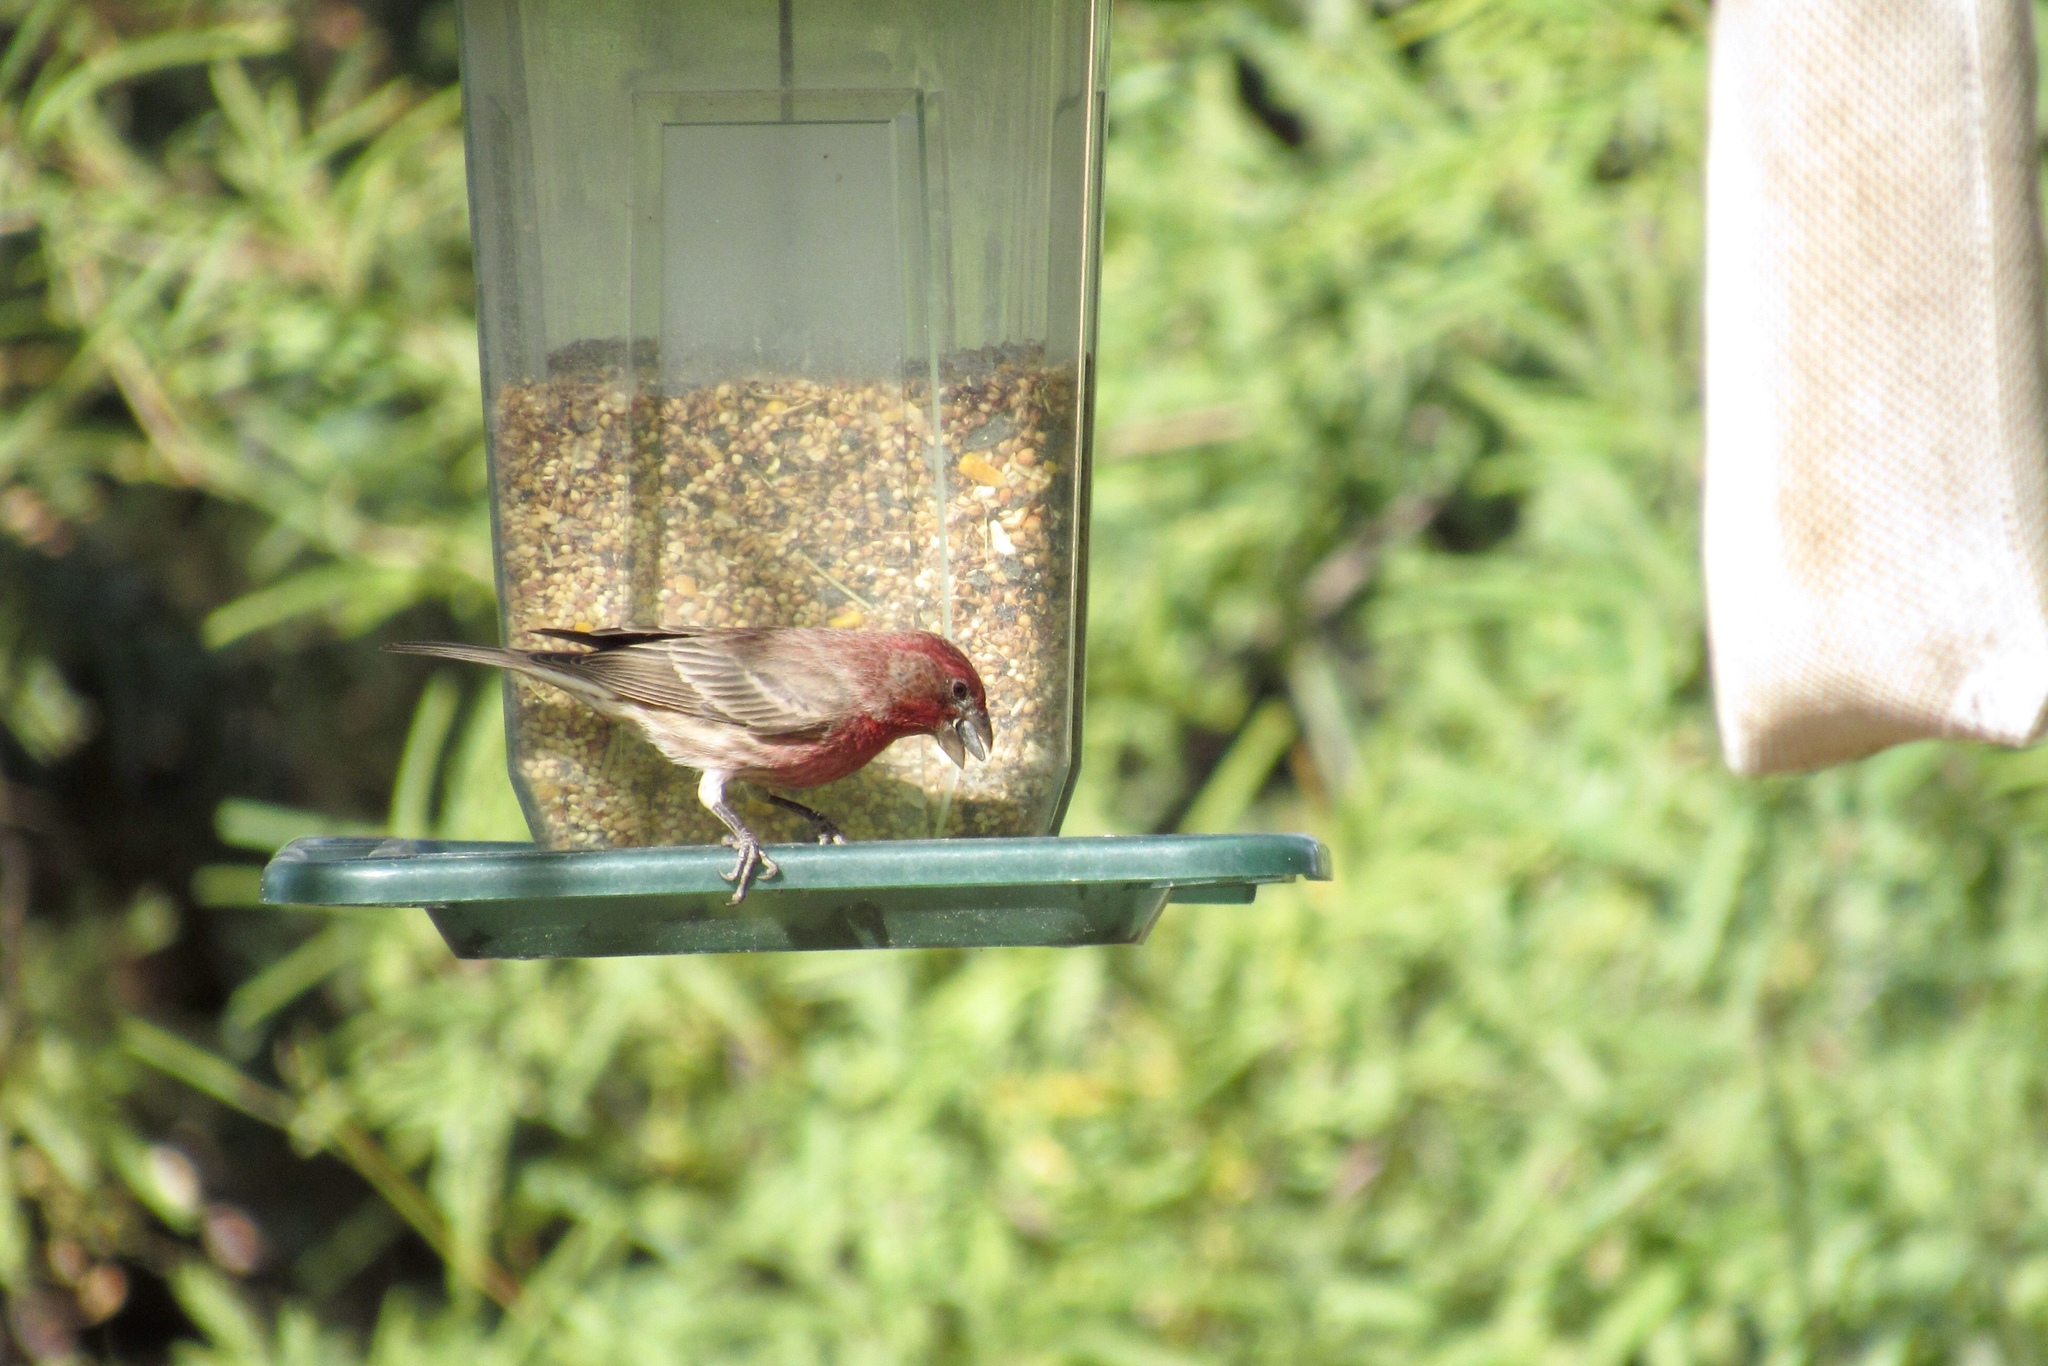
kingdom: Animalia
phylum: Chordata
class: Aves
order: Passeriformes
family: Fringillidae
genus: Haemorhous
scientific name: Haemorhous mexicanus
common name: House finch
